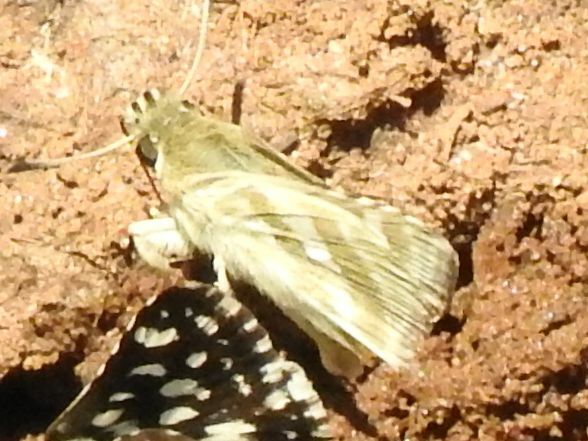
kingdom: Animalia
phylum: Arthropoda
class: Insecta
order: Lepidoptera
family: Hesperiidae
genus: Spialia
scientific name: Spialia diomus
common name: Common sandman
